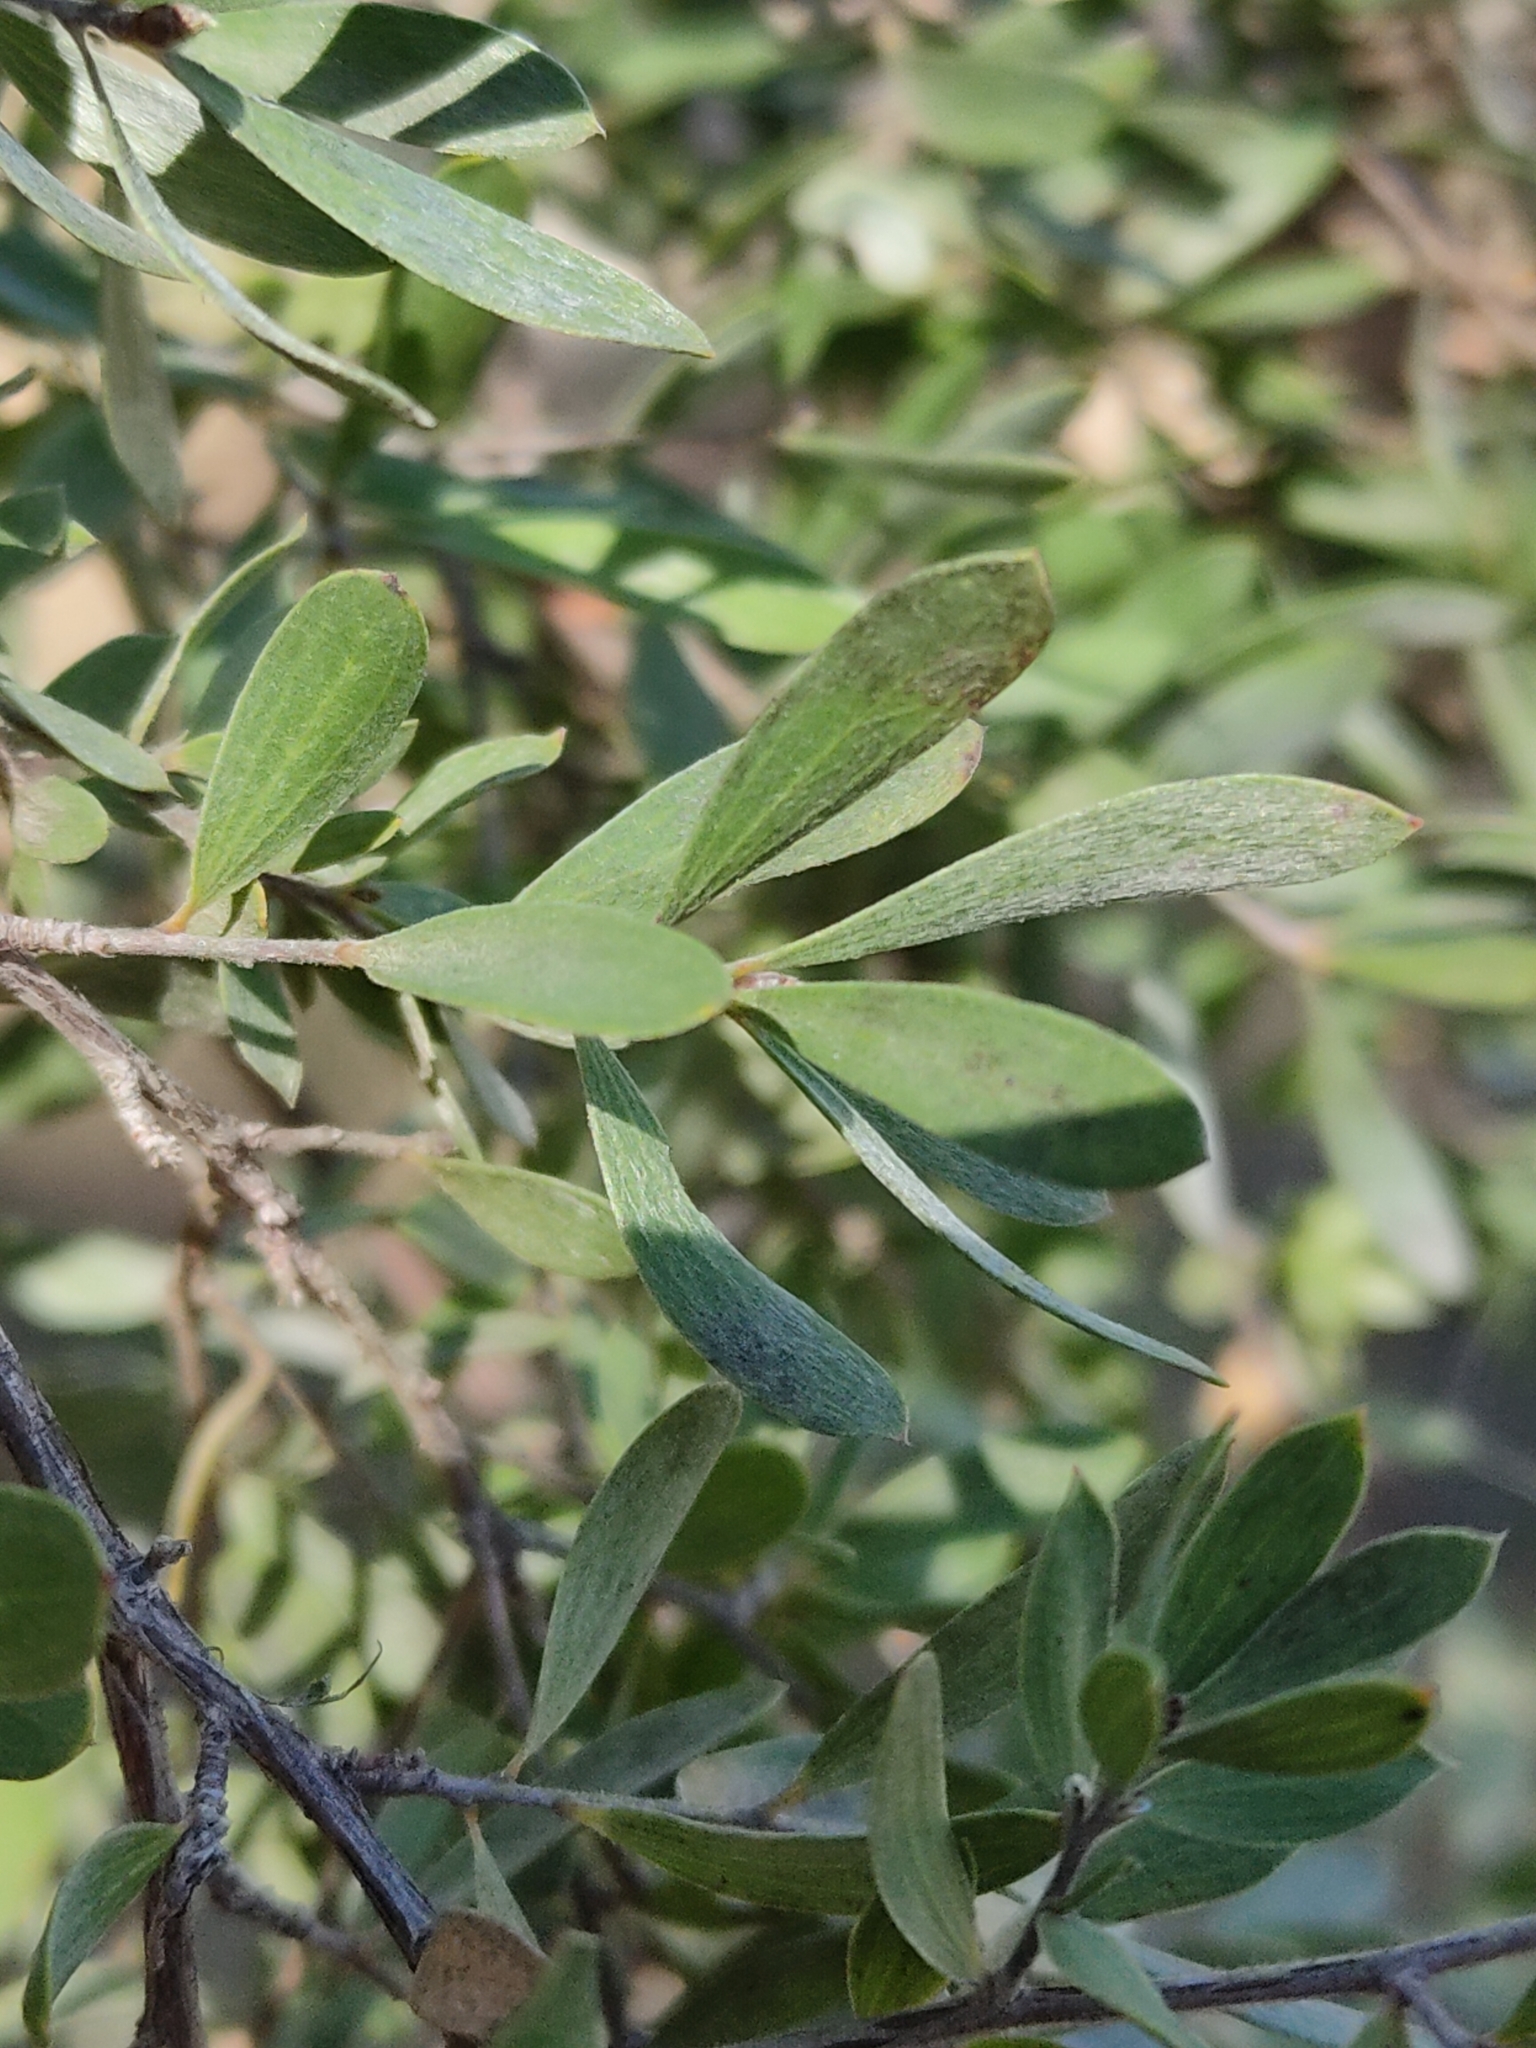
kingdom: Plantae
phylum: Tracheophyta
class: Magnoliopsida
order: Myrtales
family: Myrtaceae
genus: Leptospermum
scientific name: Leptospermum trinervium
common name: Flaky-barked tea-tree
